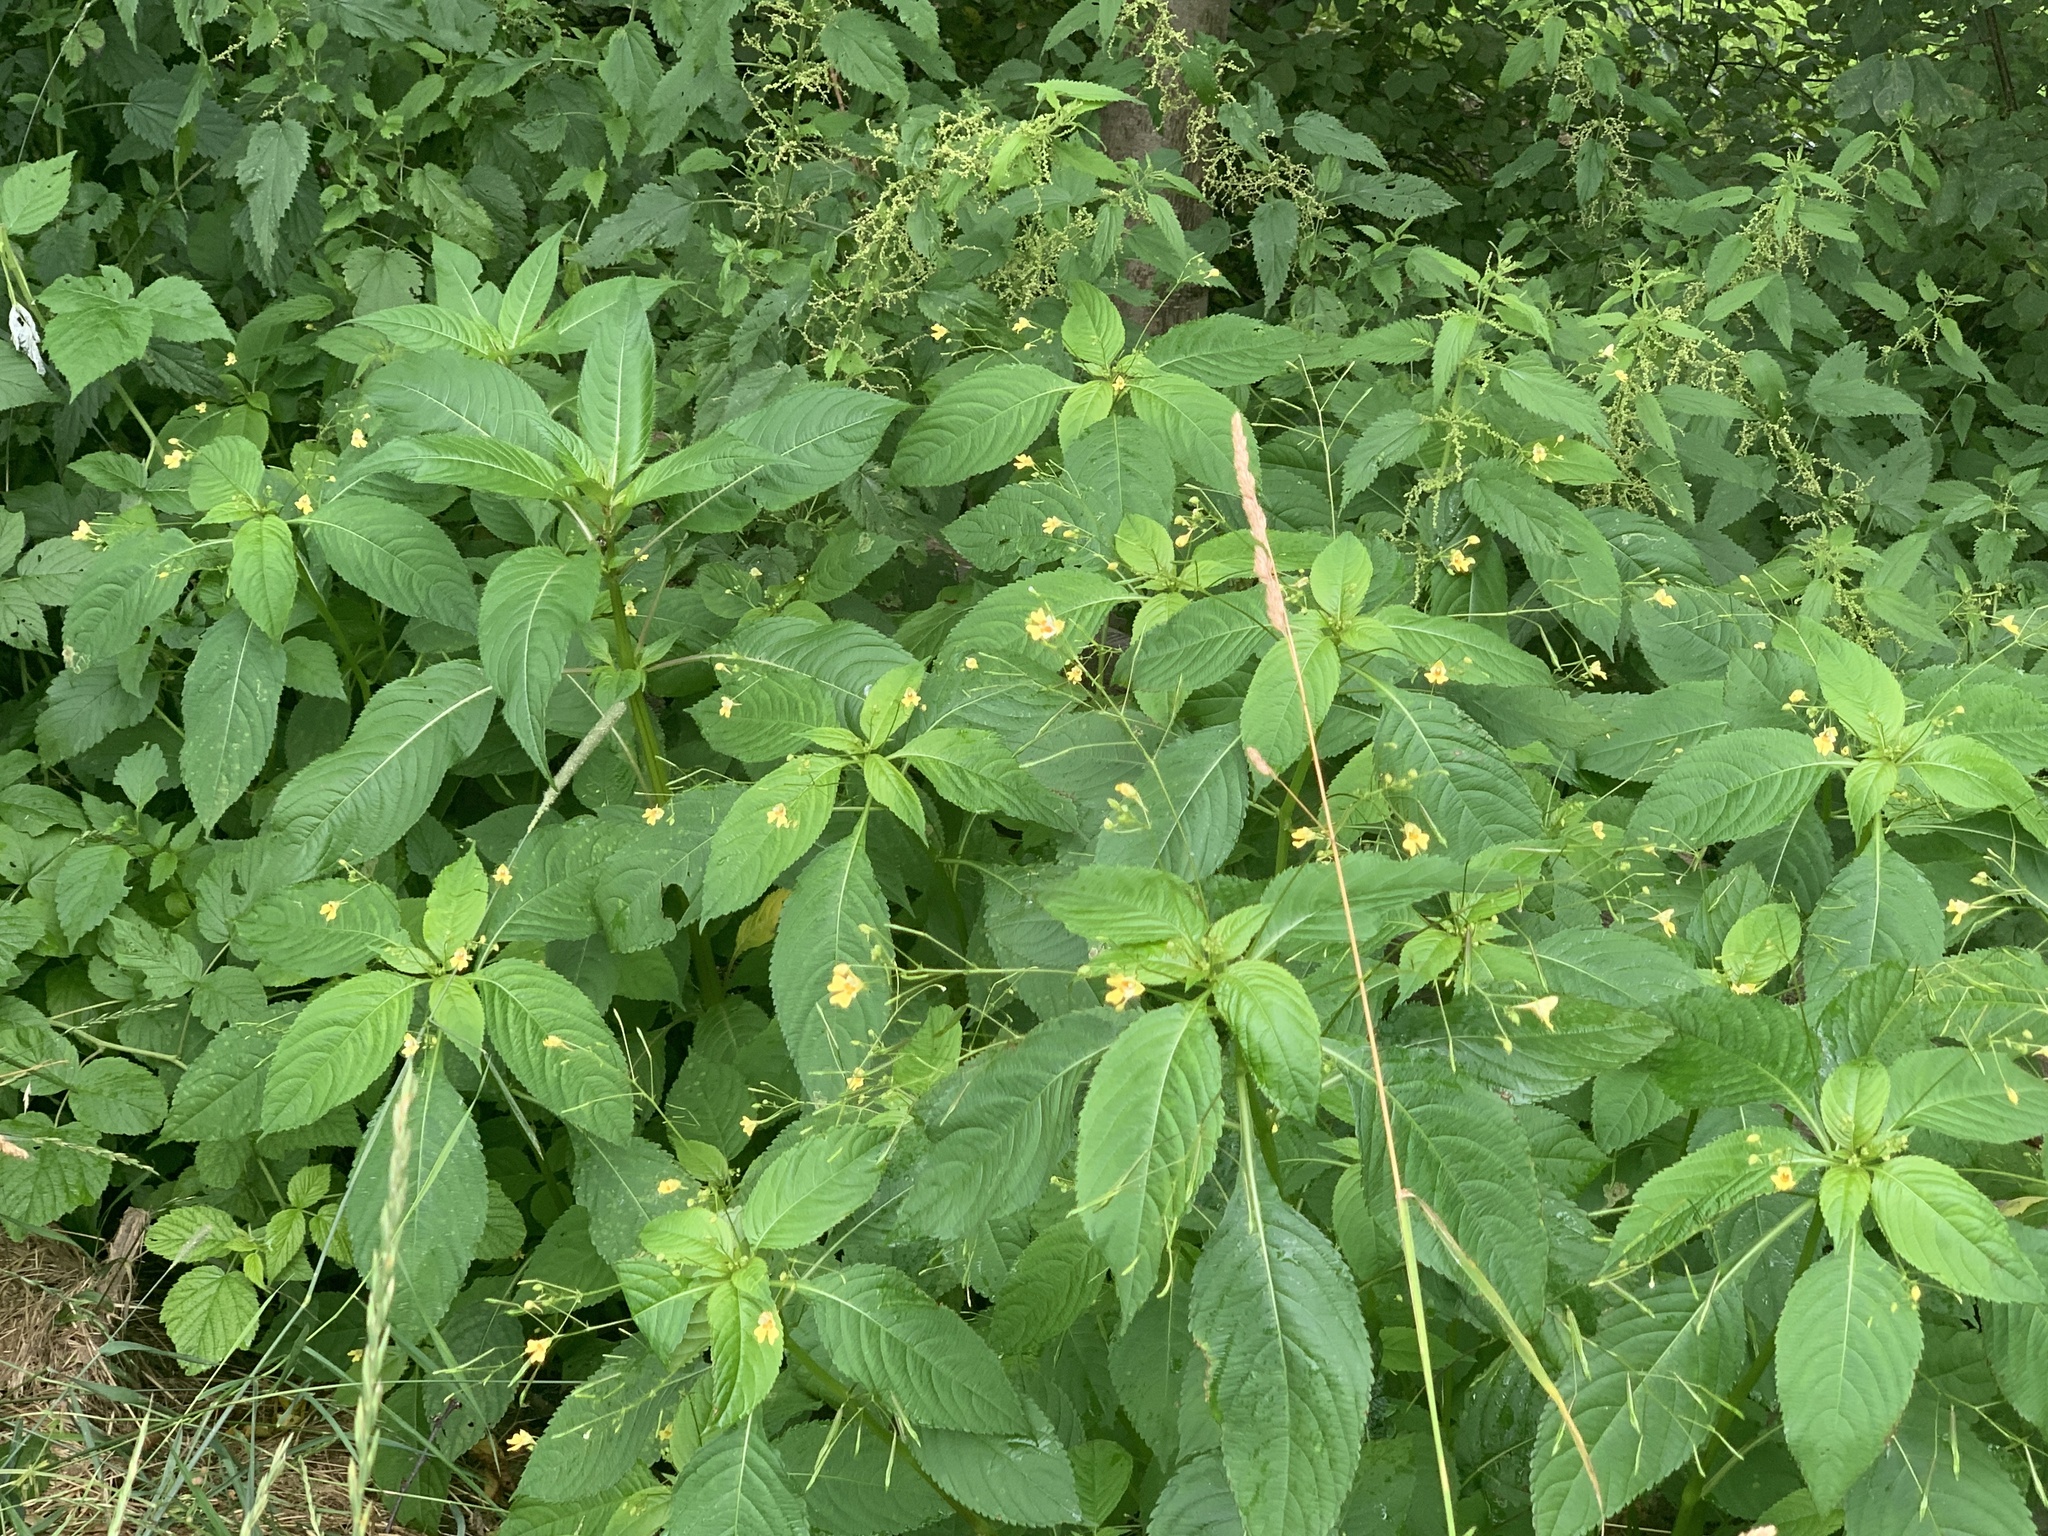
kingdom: Plantae
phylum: Tracheophyta
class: Magnoliopsida
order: Ericales
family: Balsaminaceae
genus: Impatiens
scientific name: Impatiens parviflora
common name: Small balsam
